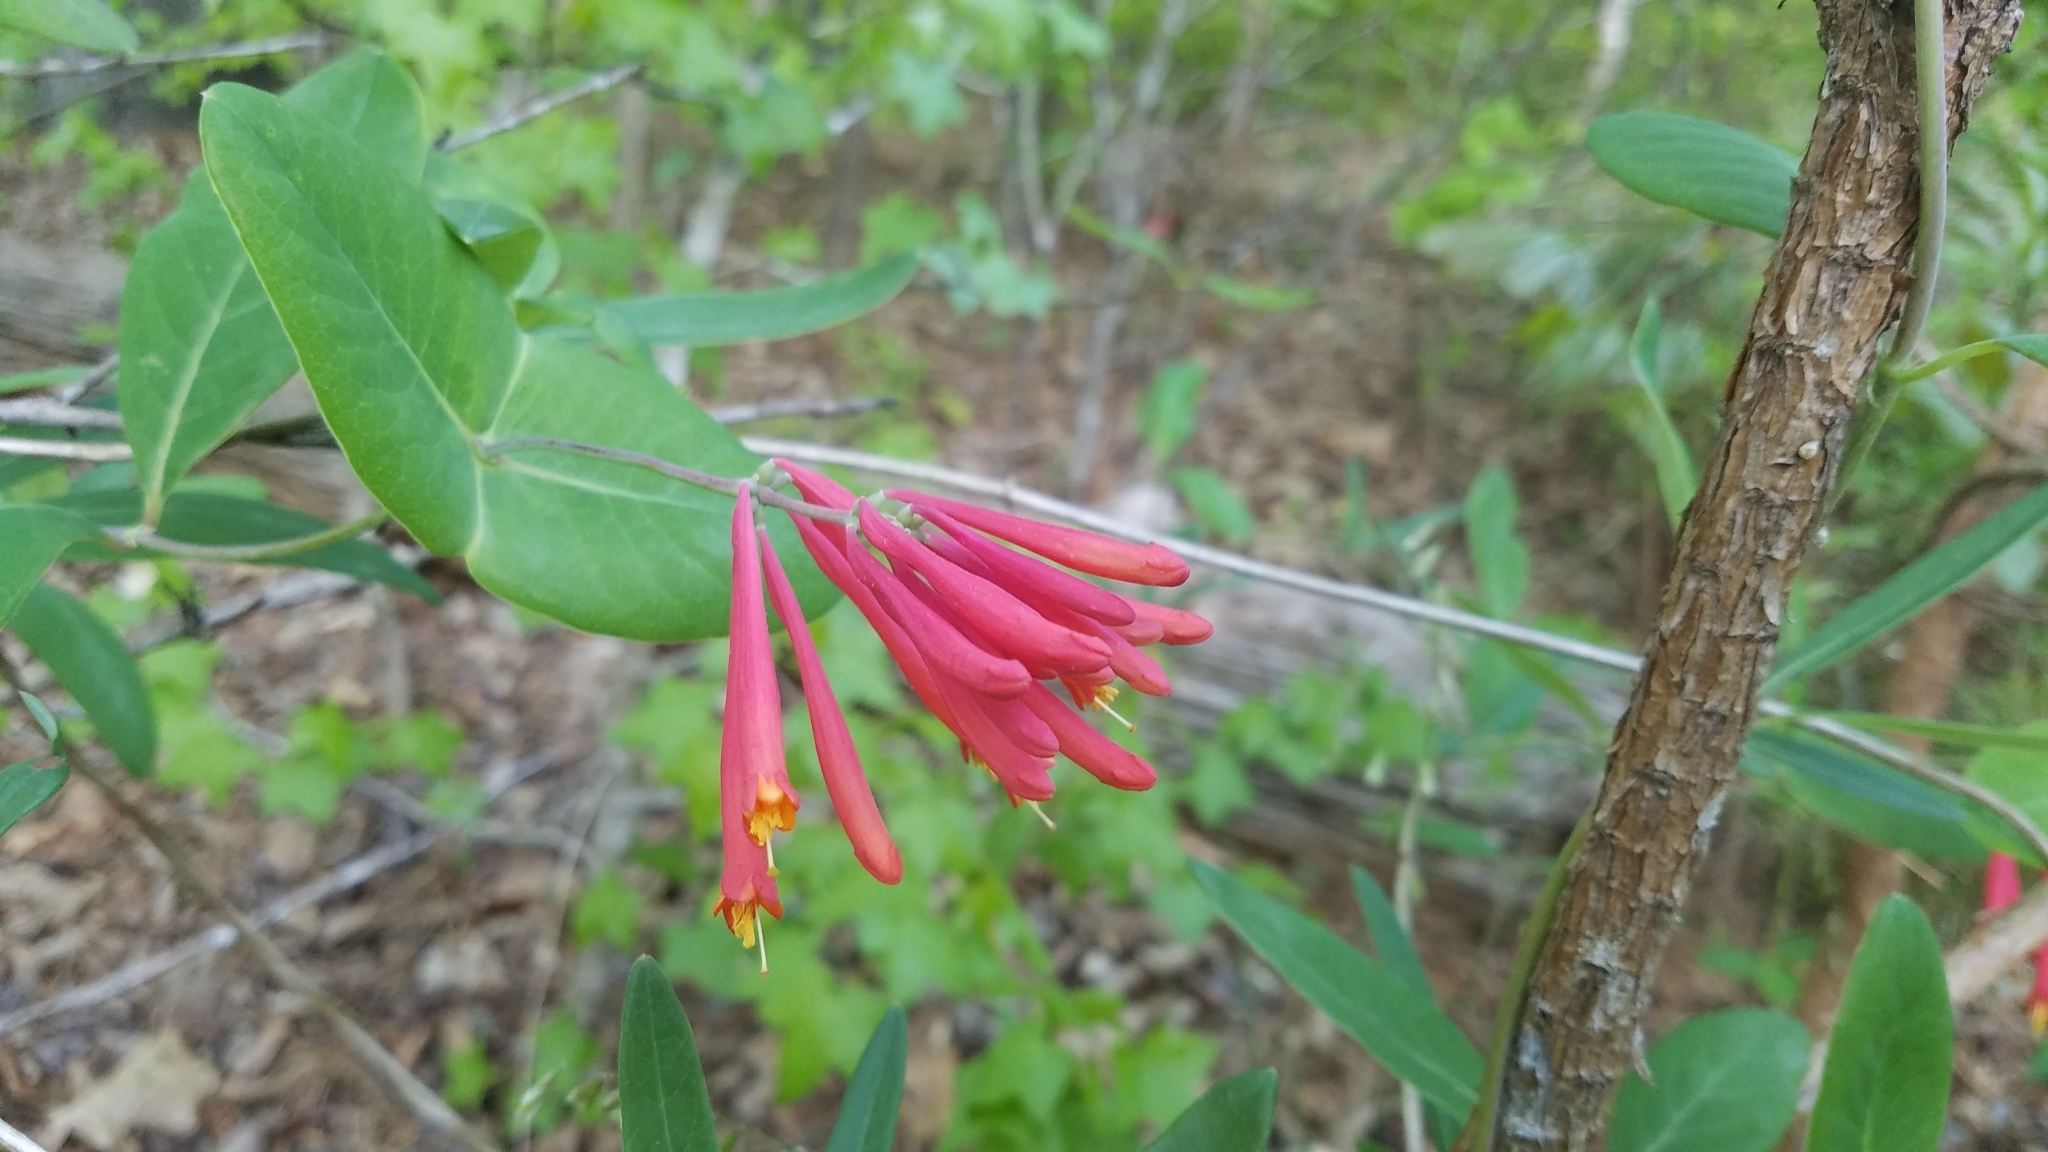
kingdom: Plantae
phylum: Tracheophyta
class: Magnoliopsida
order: Dipsacales
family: Caprifoliaceae
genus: Lonicera
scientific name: Lonicera sempervirens
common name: Coral honeysuckle
